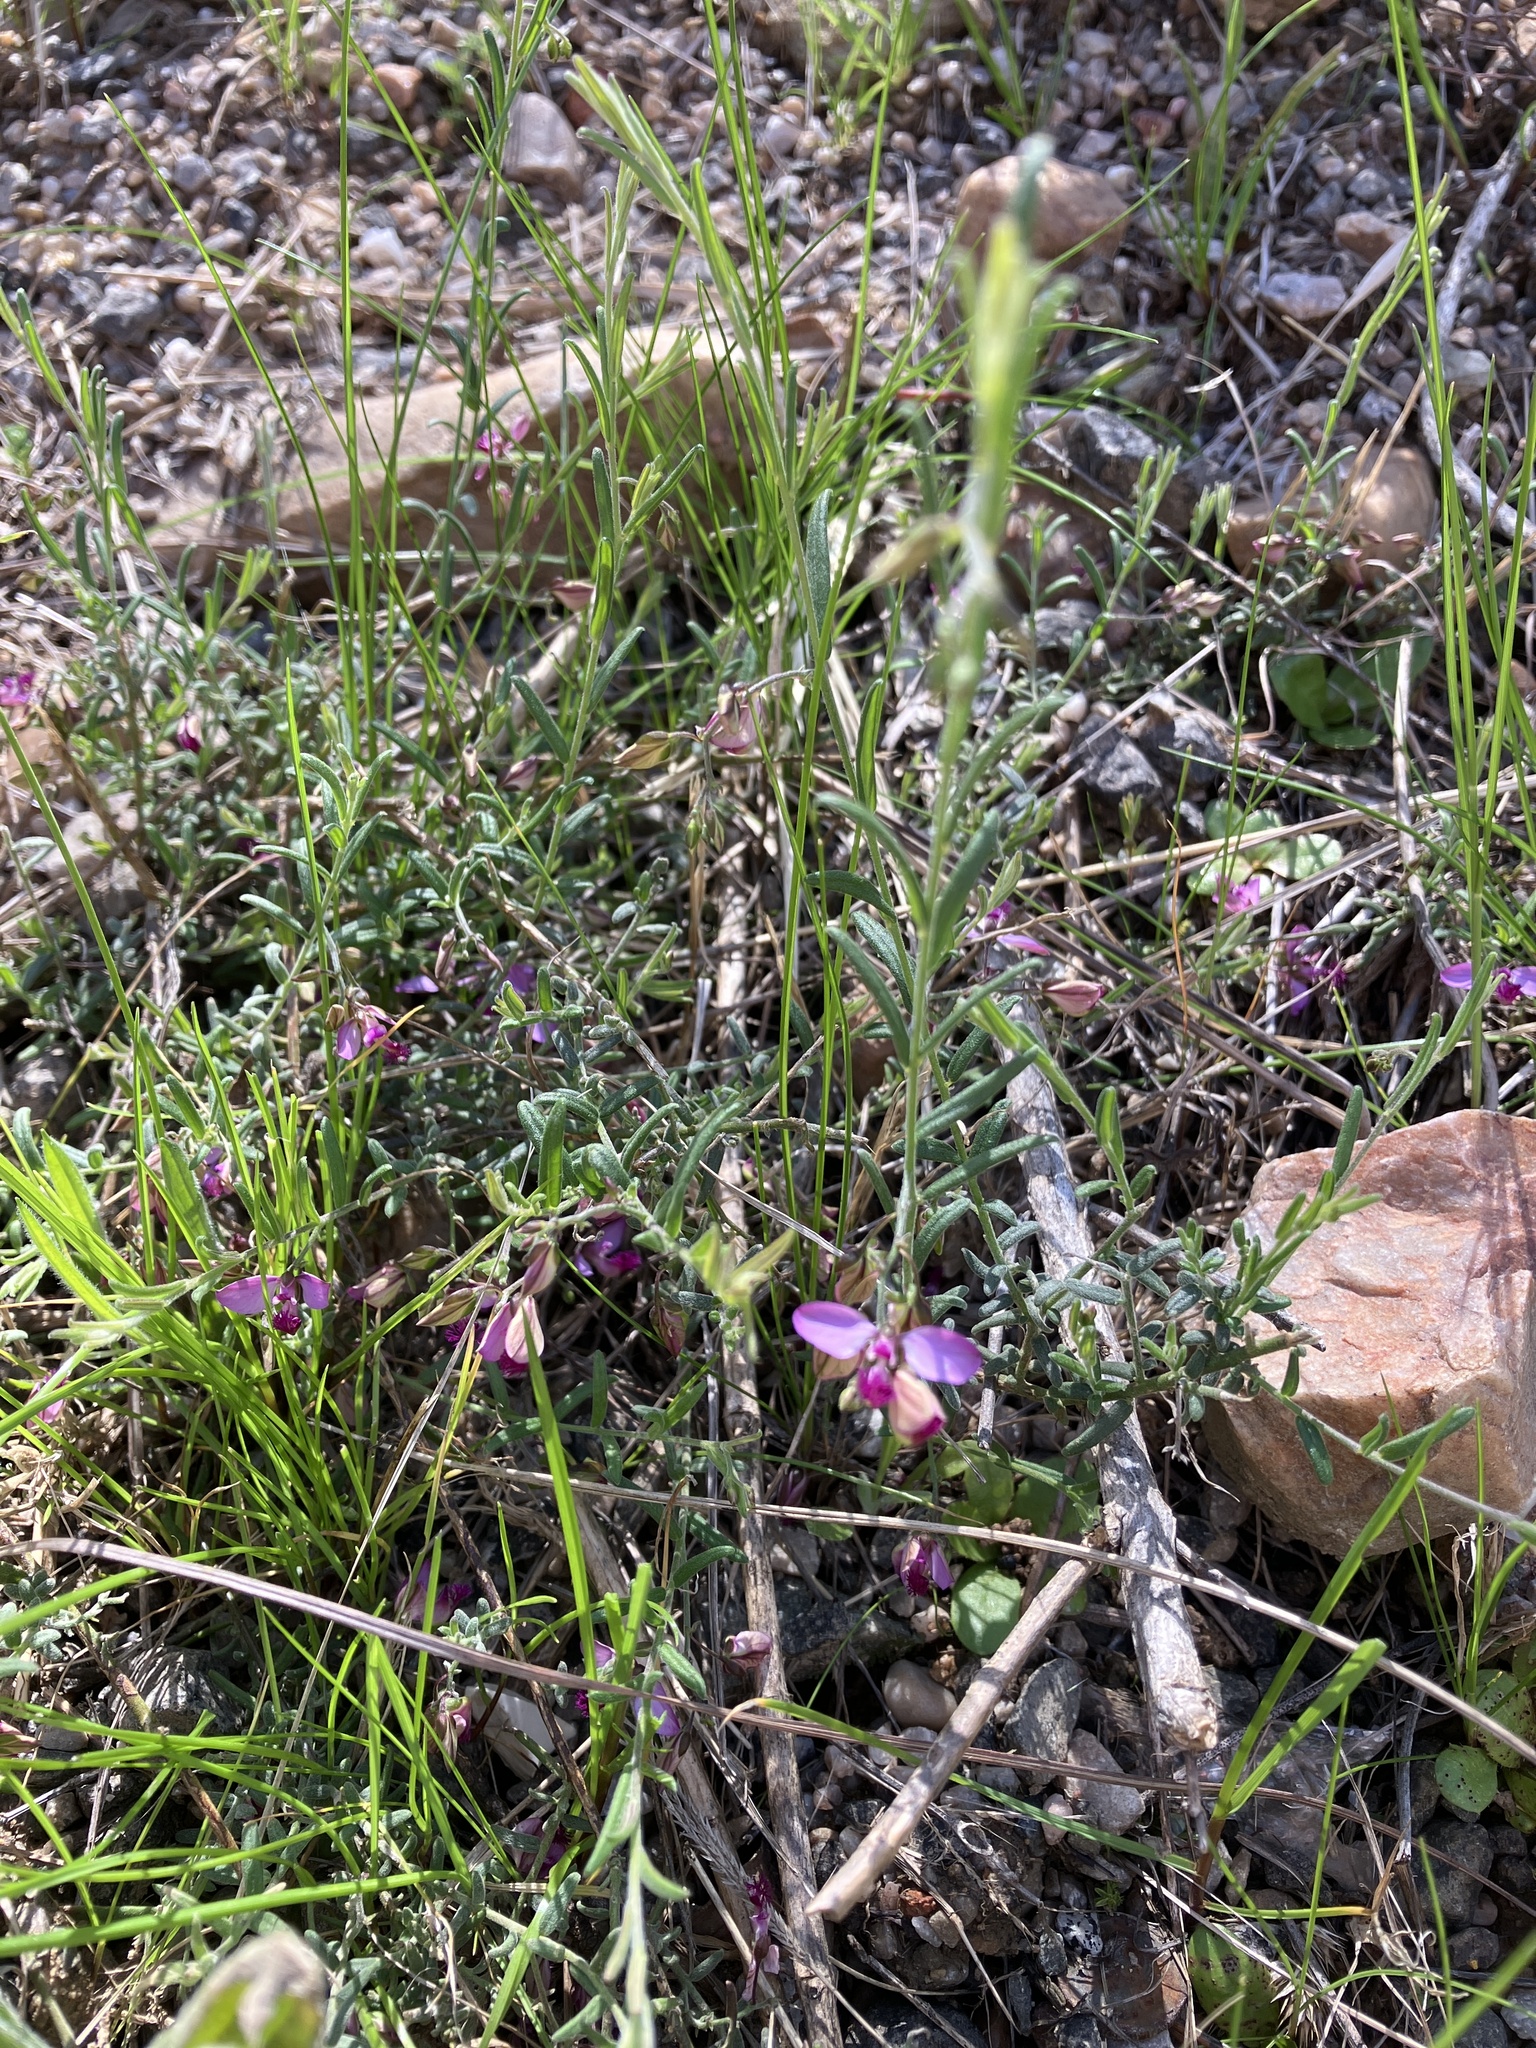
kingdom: Plantae
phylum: Tracheophyta
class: Magnoliopsida
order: Fabales
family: Polygalaceae
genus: Polygala
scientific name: Polygala scabra
